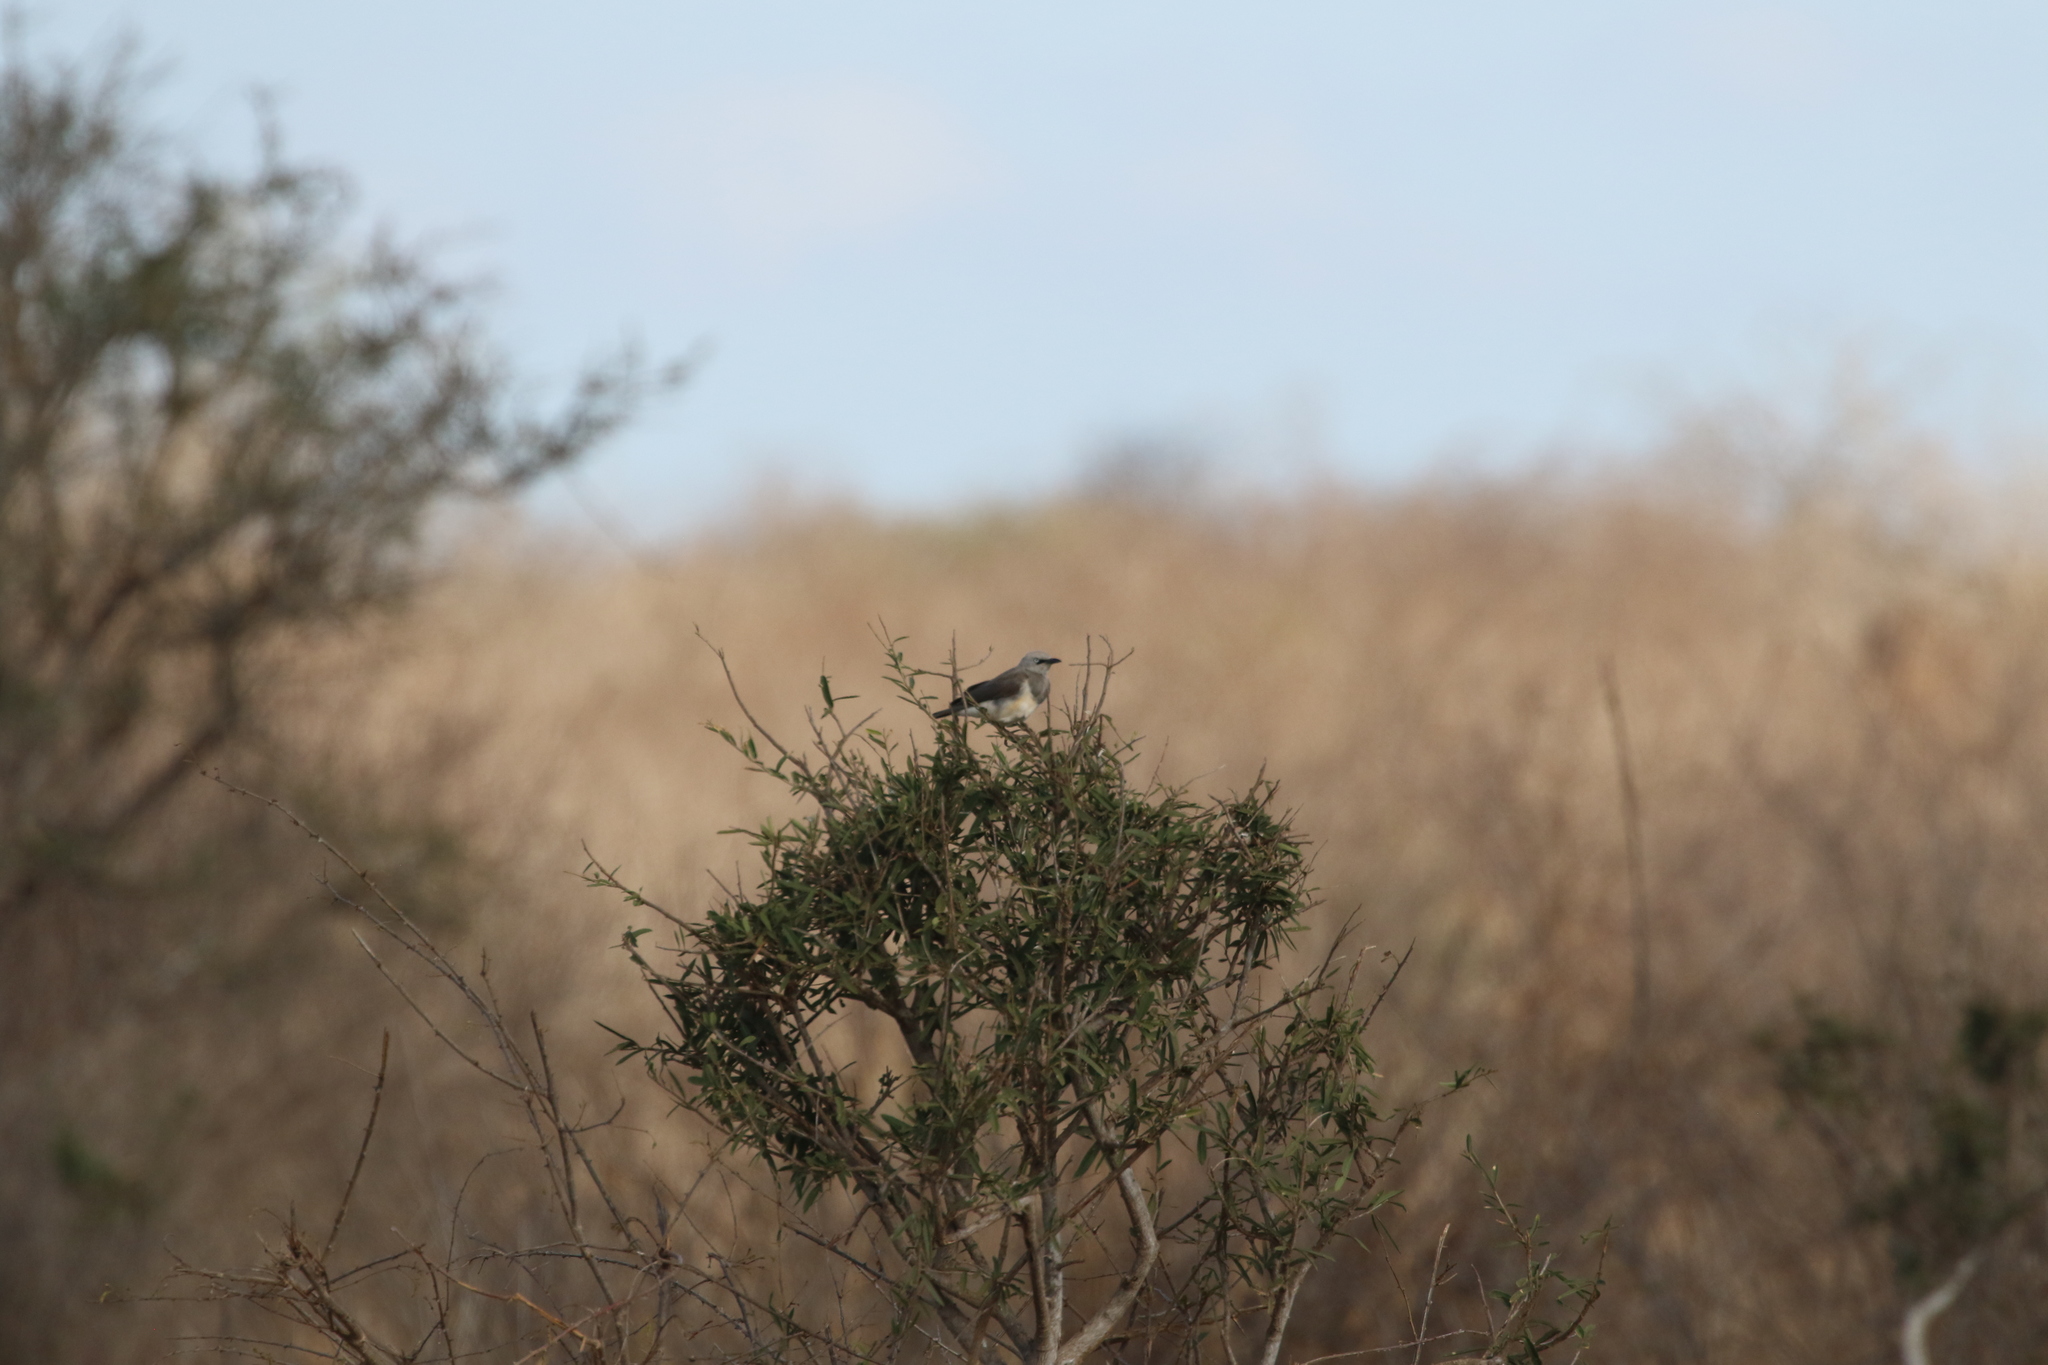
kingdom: Animalia
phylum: Chordata
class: Aves
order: Passeriformes
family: Sturnidae
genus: Lamprotornis
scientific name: Lamprotornis fischeri
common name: Fischer's starling
